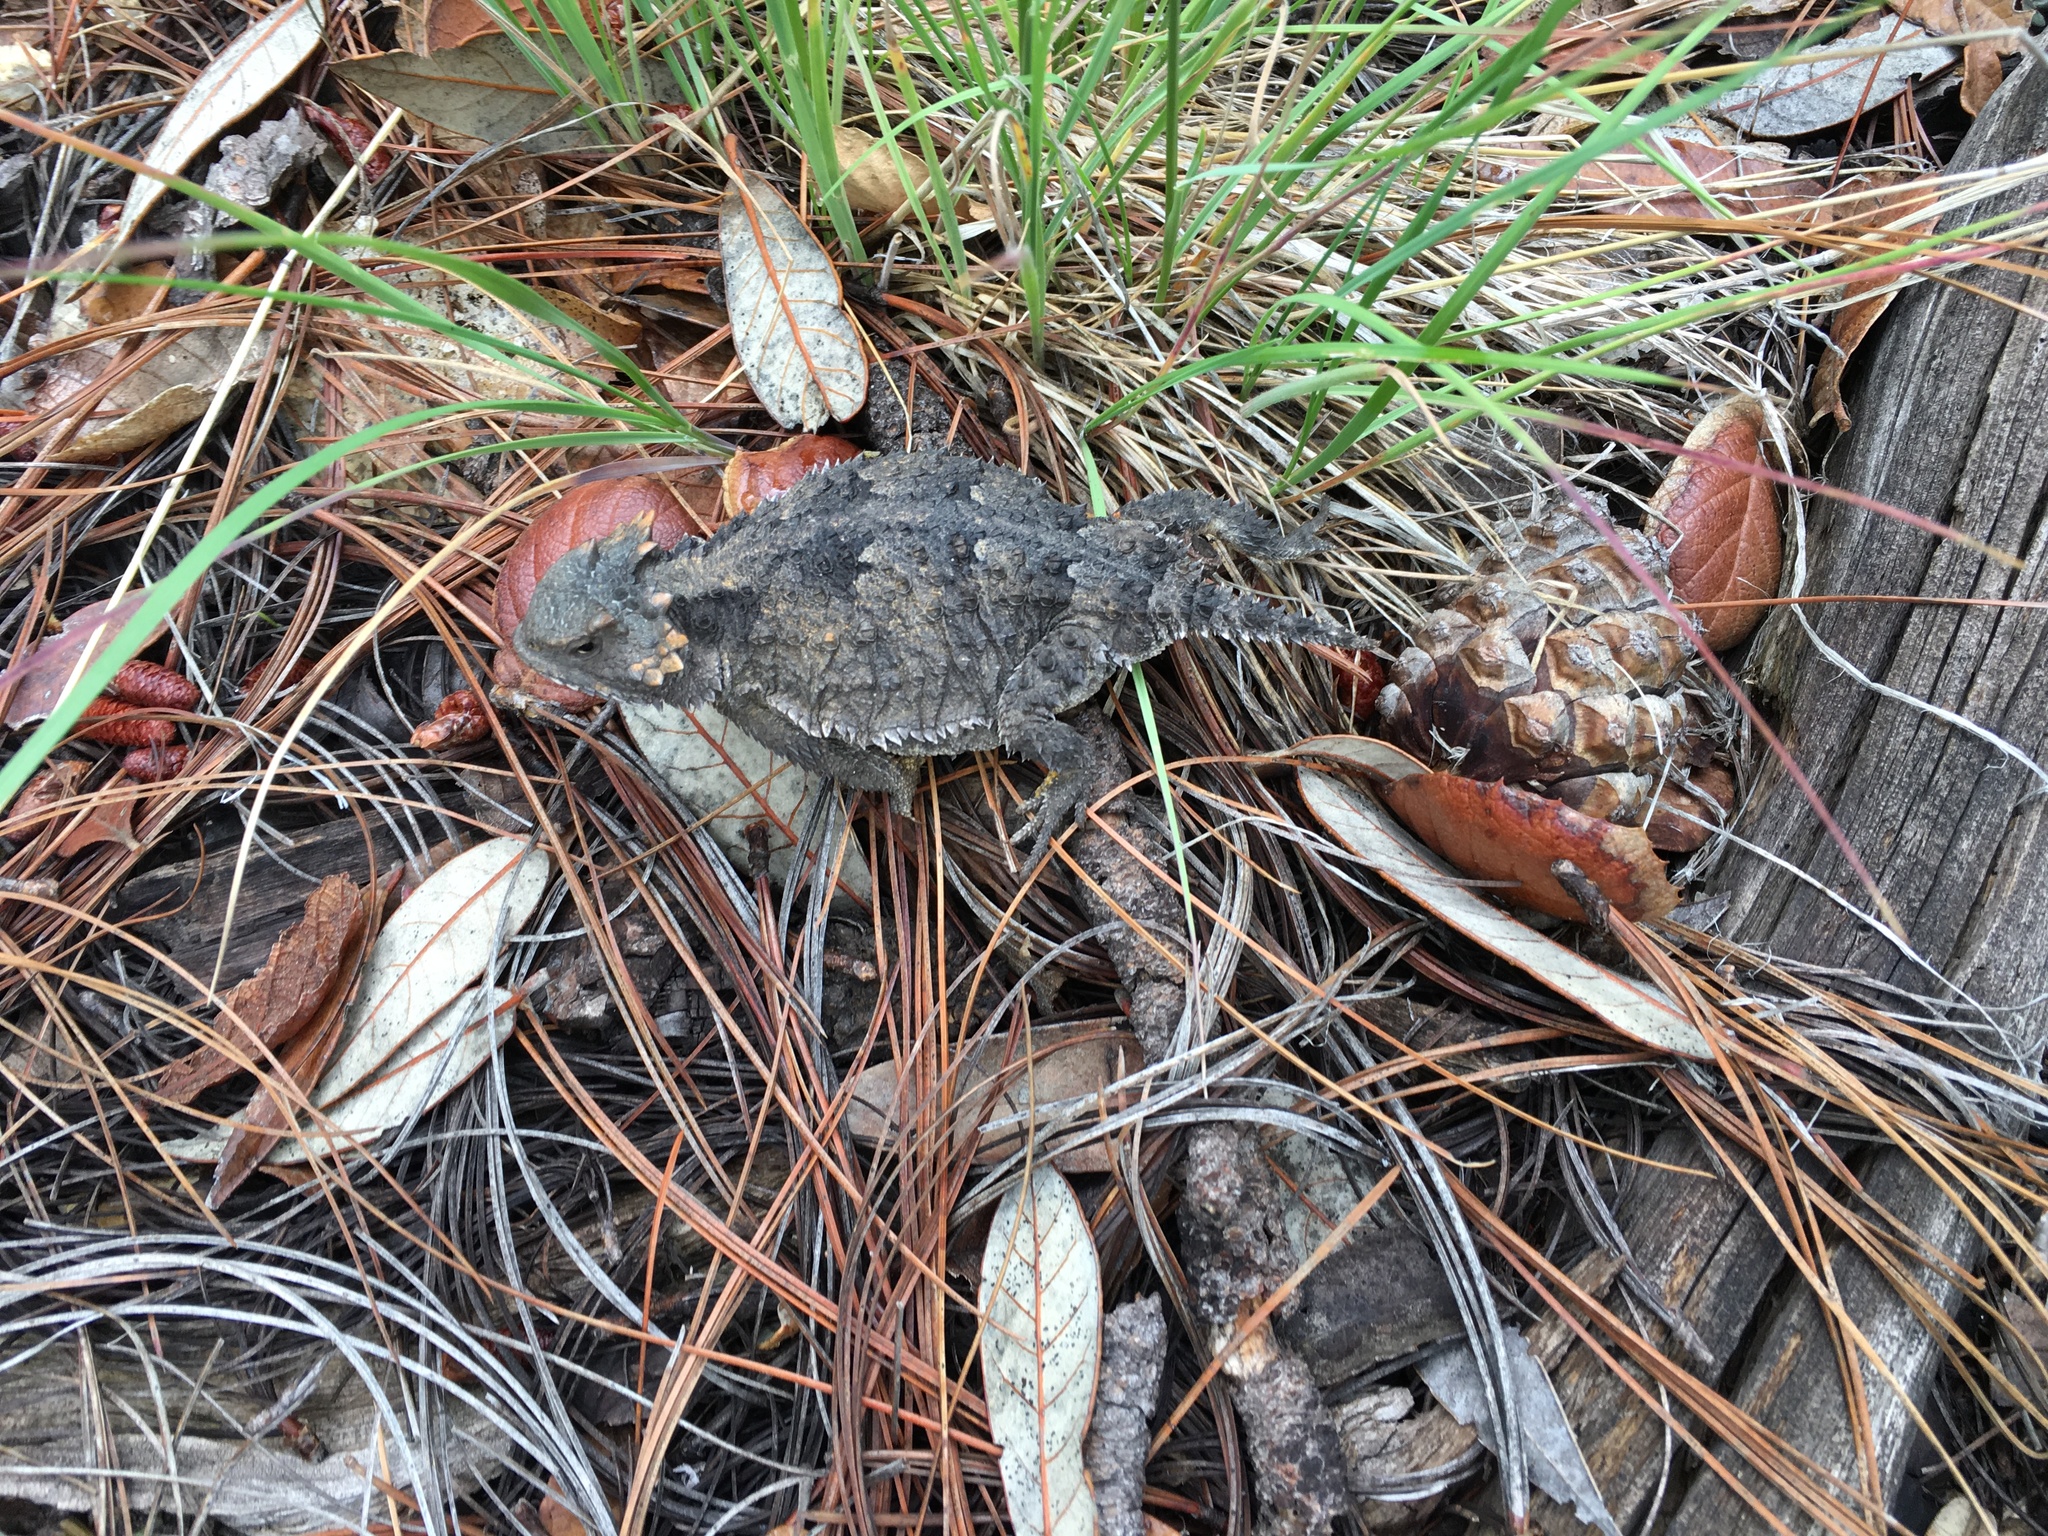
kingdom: Animalia
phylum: Chordata
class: Squamata
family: Phrynosomatidae
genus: Phrynosoma
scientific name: Phrynosoma hernandesi
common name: Greater short-horned lizard
